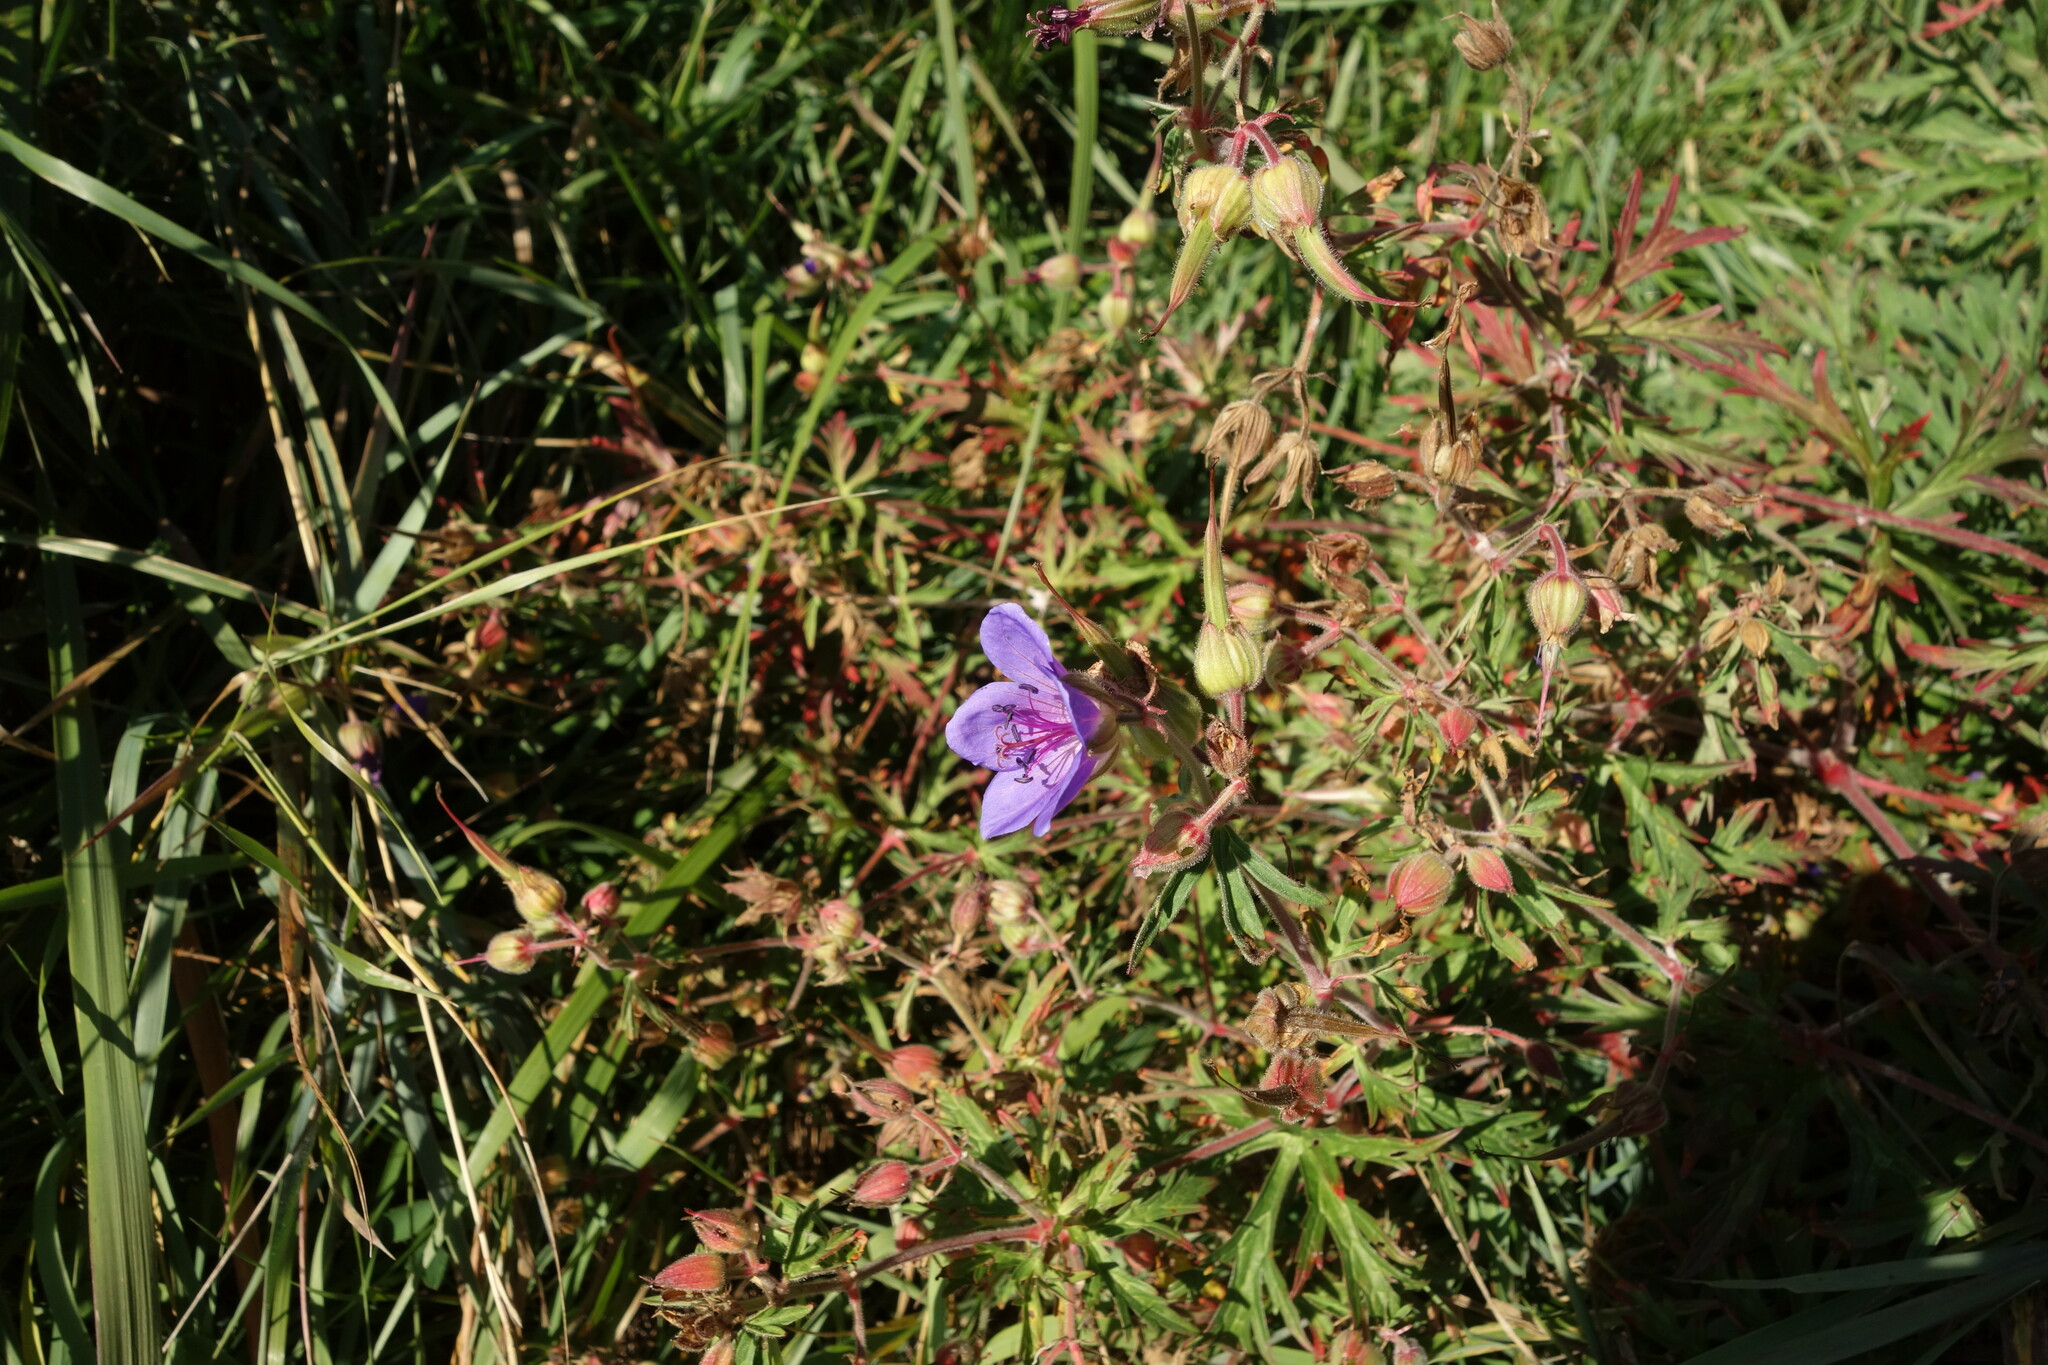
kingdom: Plantae
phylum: Tracheophyta
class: Magnoliopsida
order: Geraniales
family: Geraniaceae
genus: Geranium
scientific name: Geranium pratense
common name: Meadow crane's-bill
